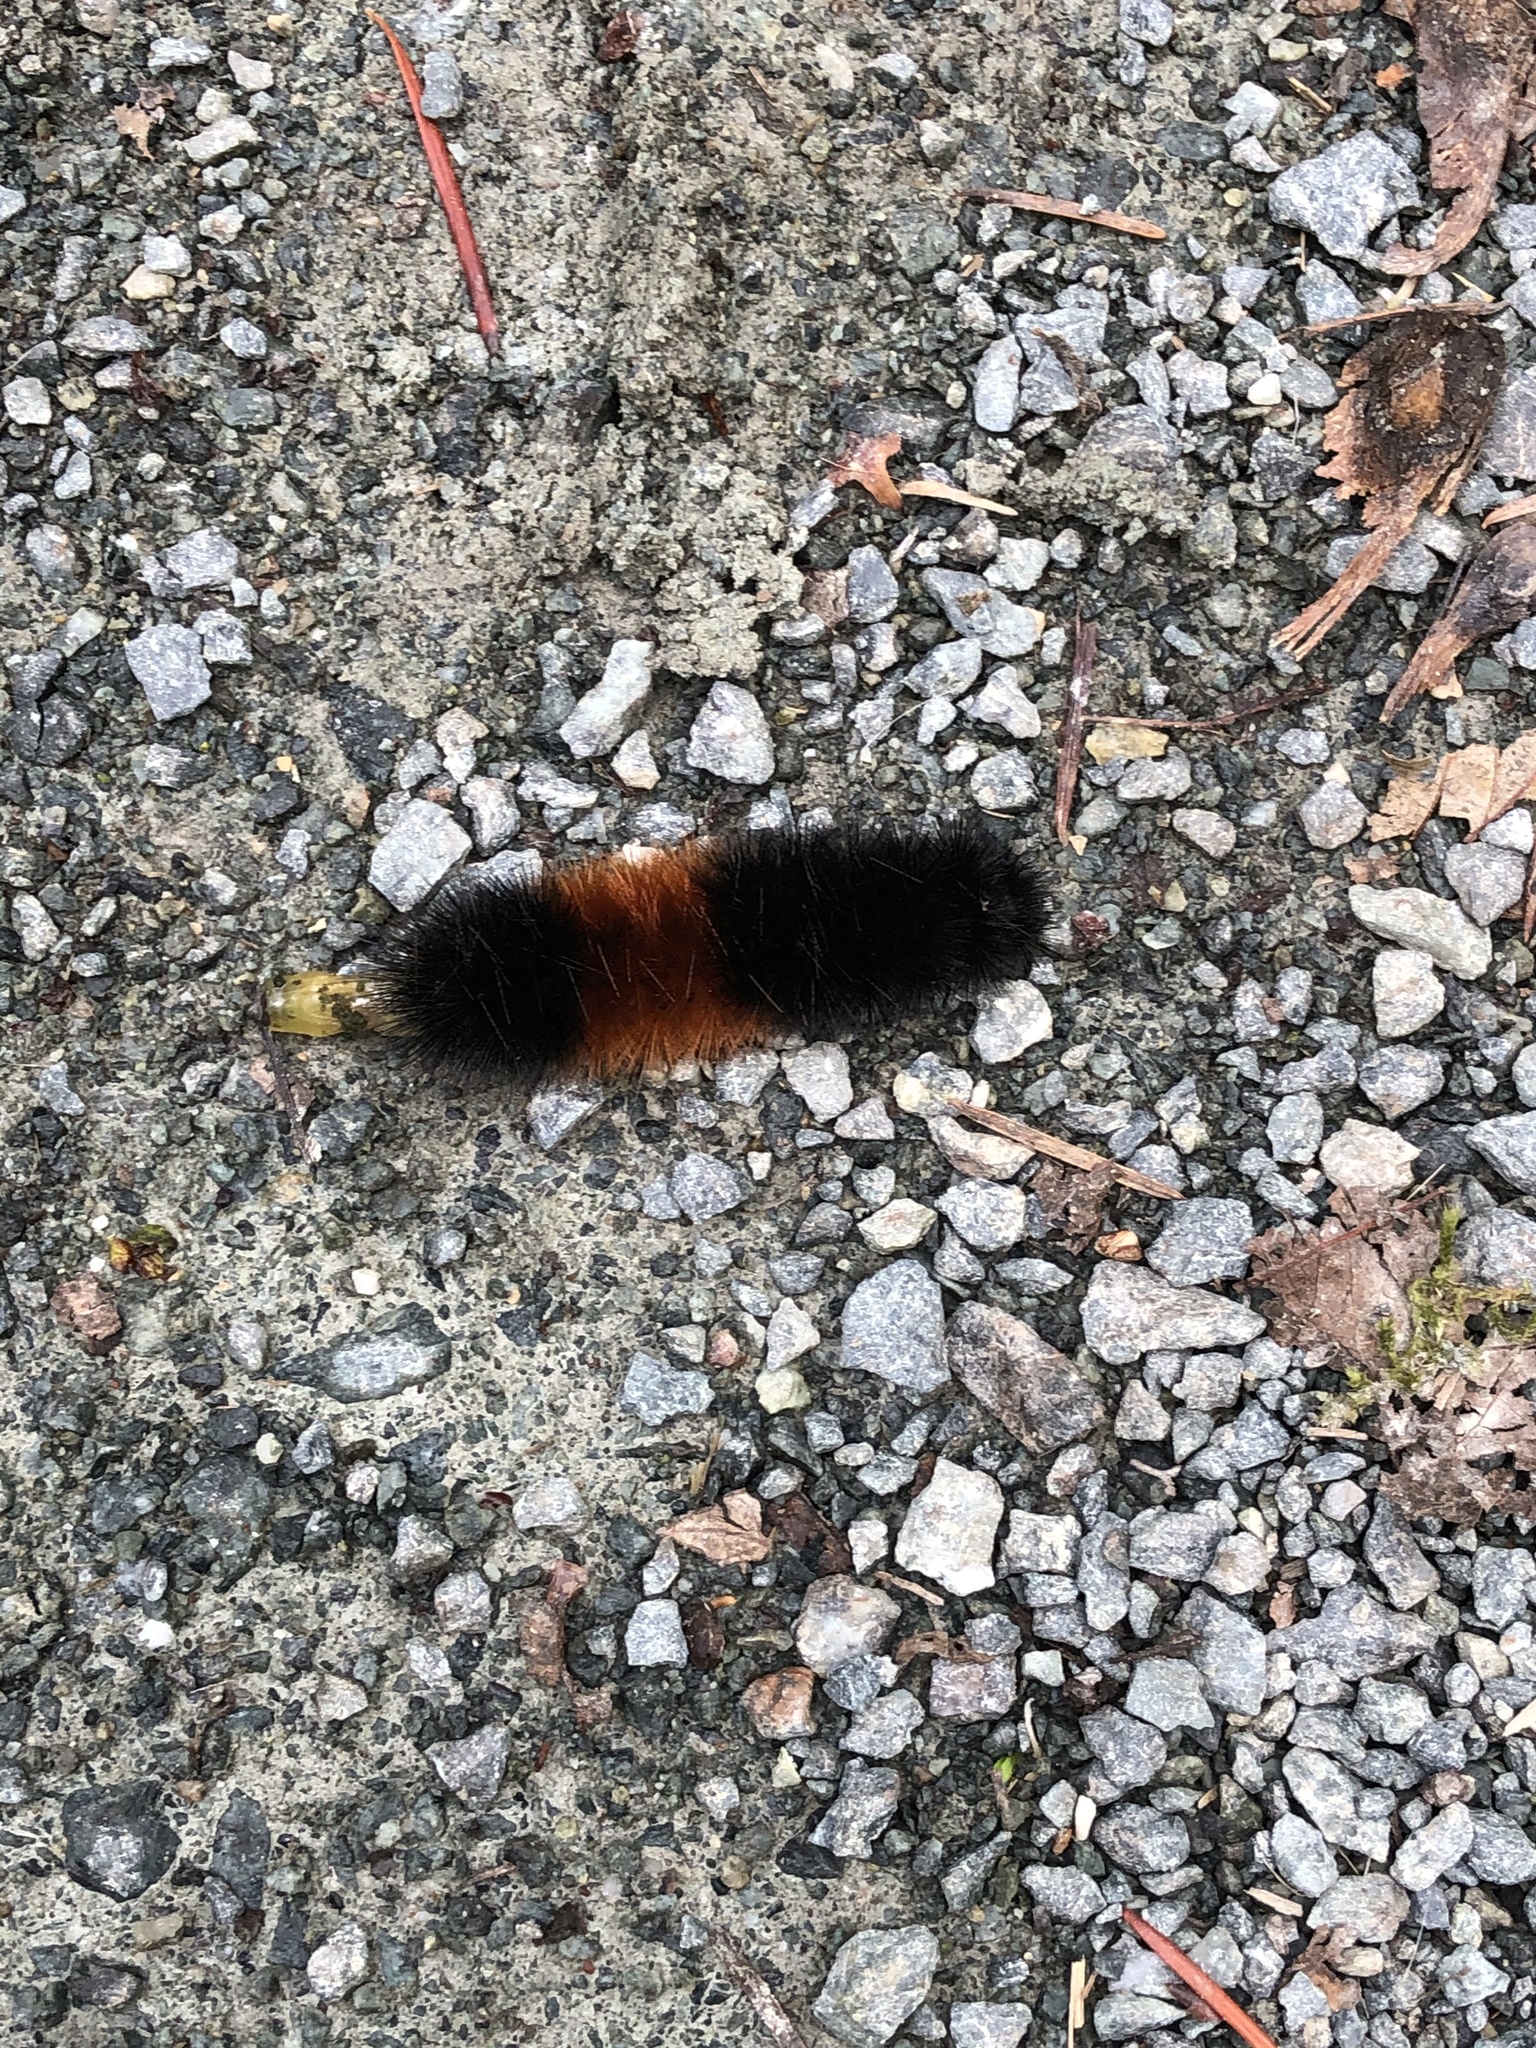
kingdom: Animalia
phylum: Arthropoda
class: Insecta
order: Lepidoptera
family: Erebidae
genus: Pyrrharctia
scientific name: Pyrrharctia isabella
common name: Isabella tiger moth
